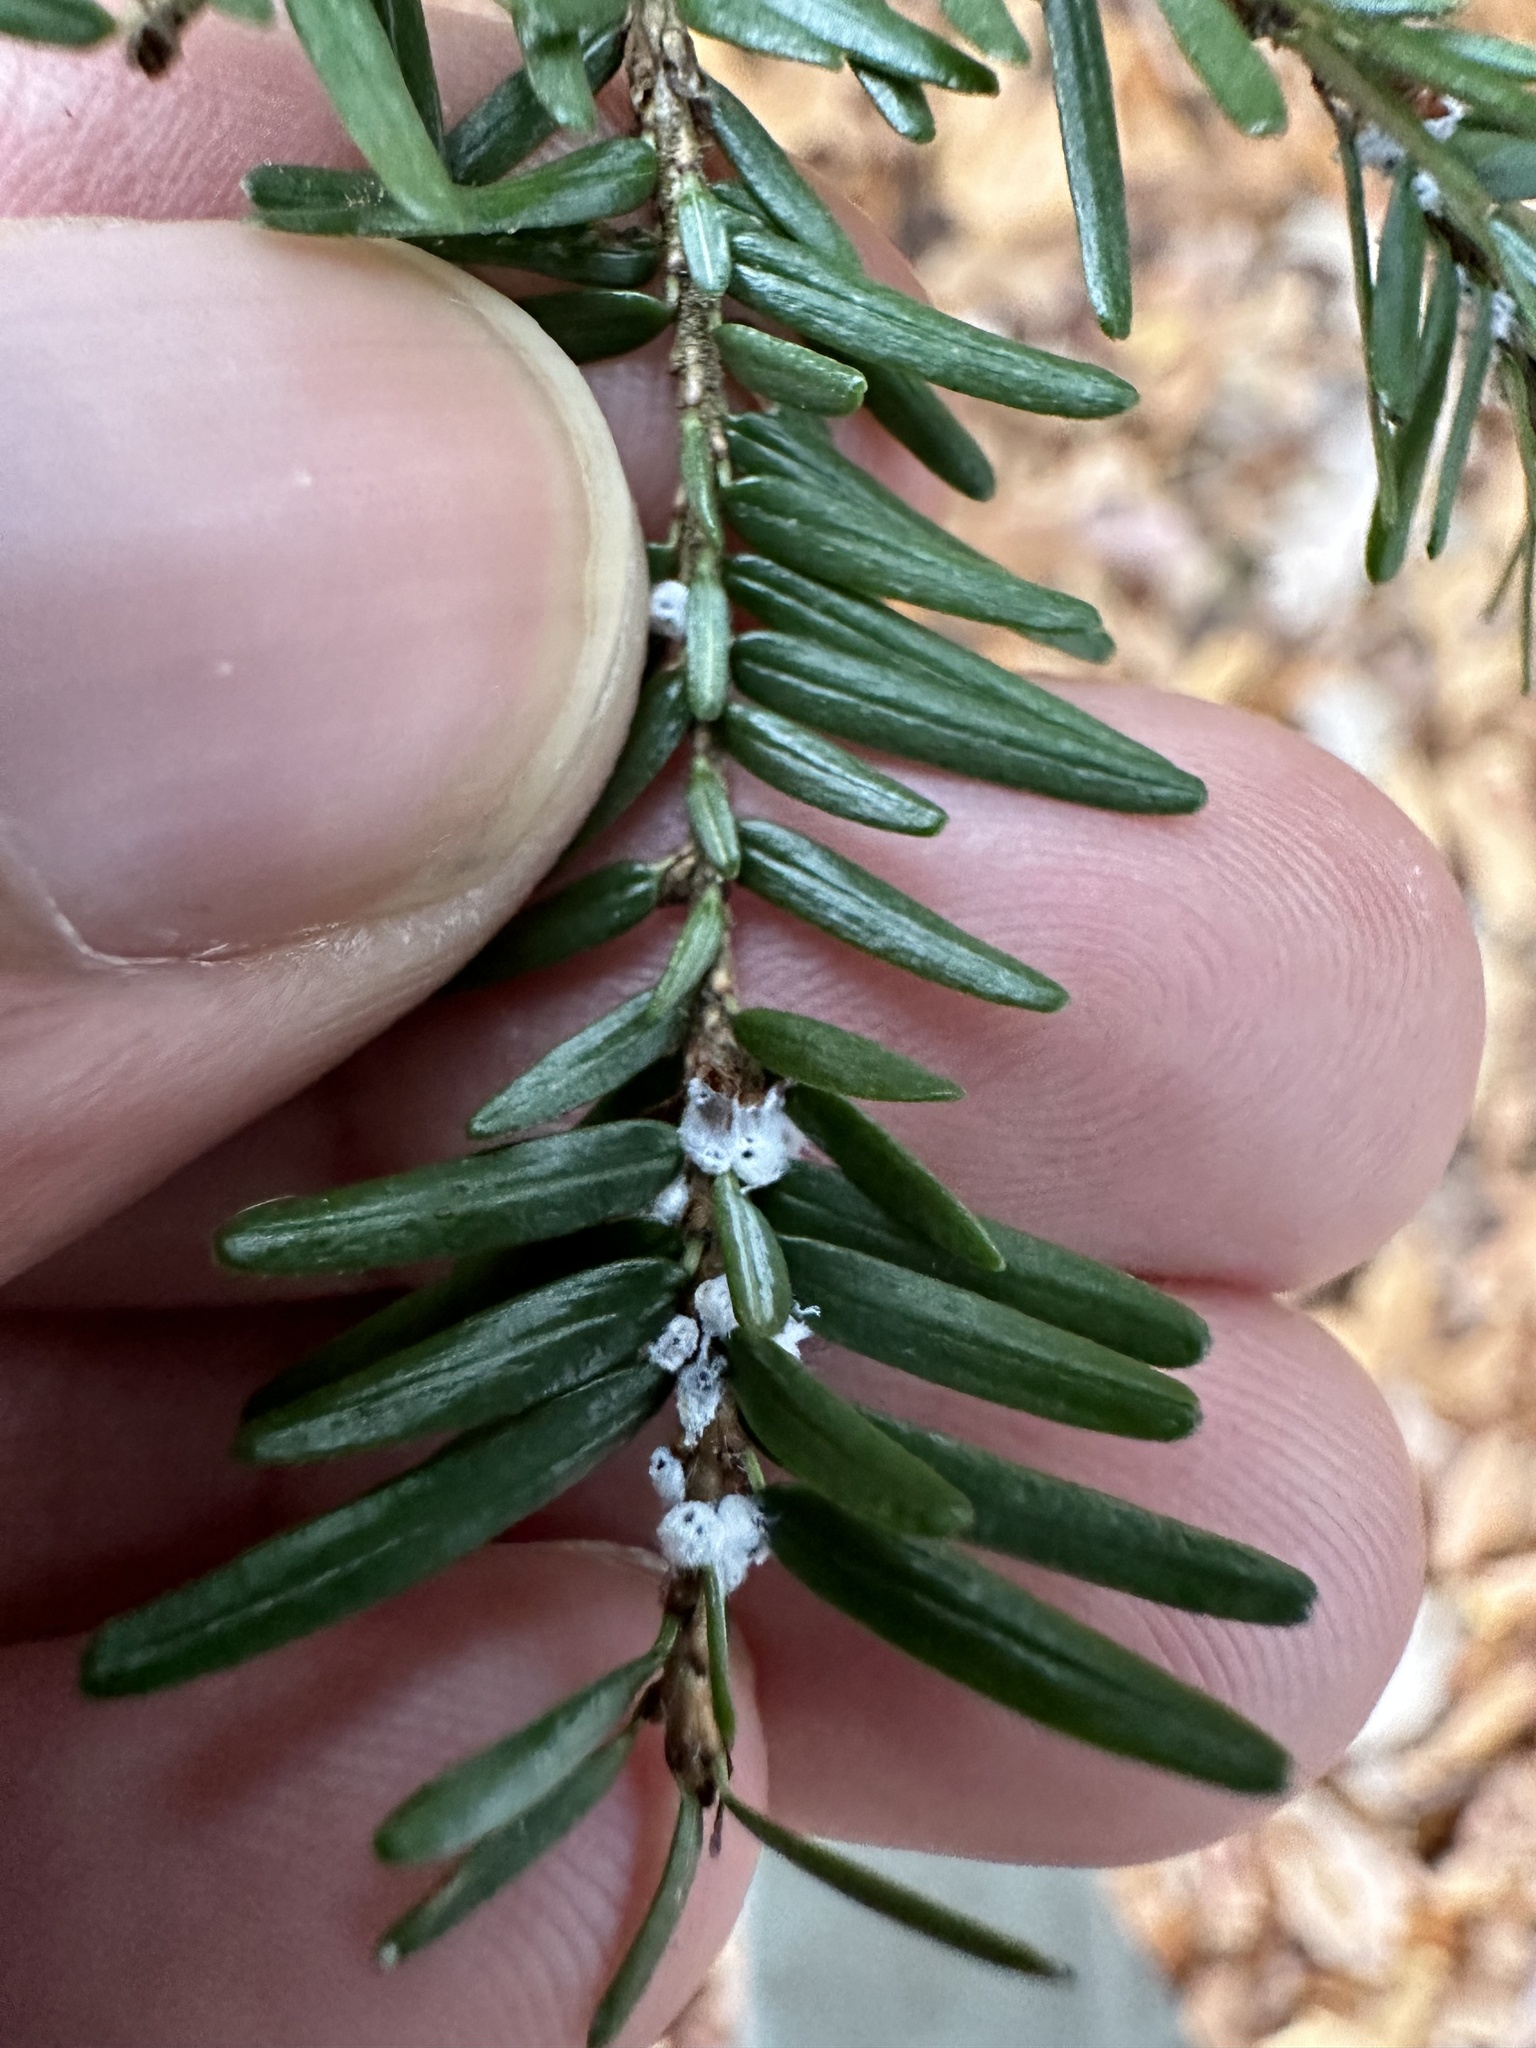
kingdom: Animalia
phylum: Arthropoda
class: Insecta
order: Hemiptera
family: Adelgidae
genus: Adelges
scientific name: Adelges tsugae
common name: Hemlock woolly adelgid
